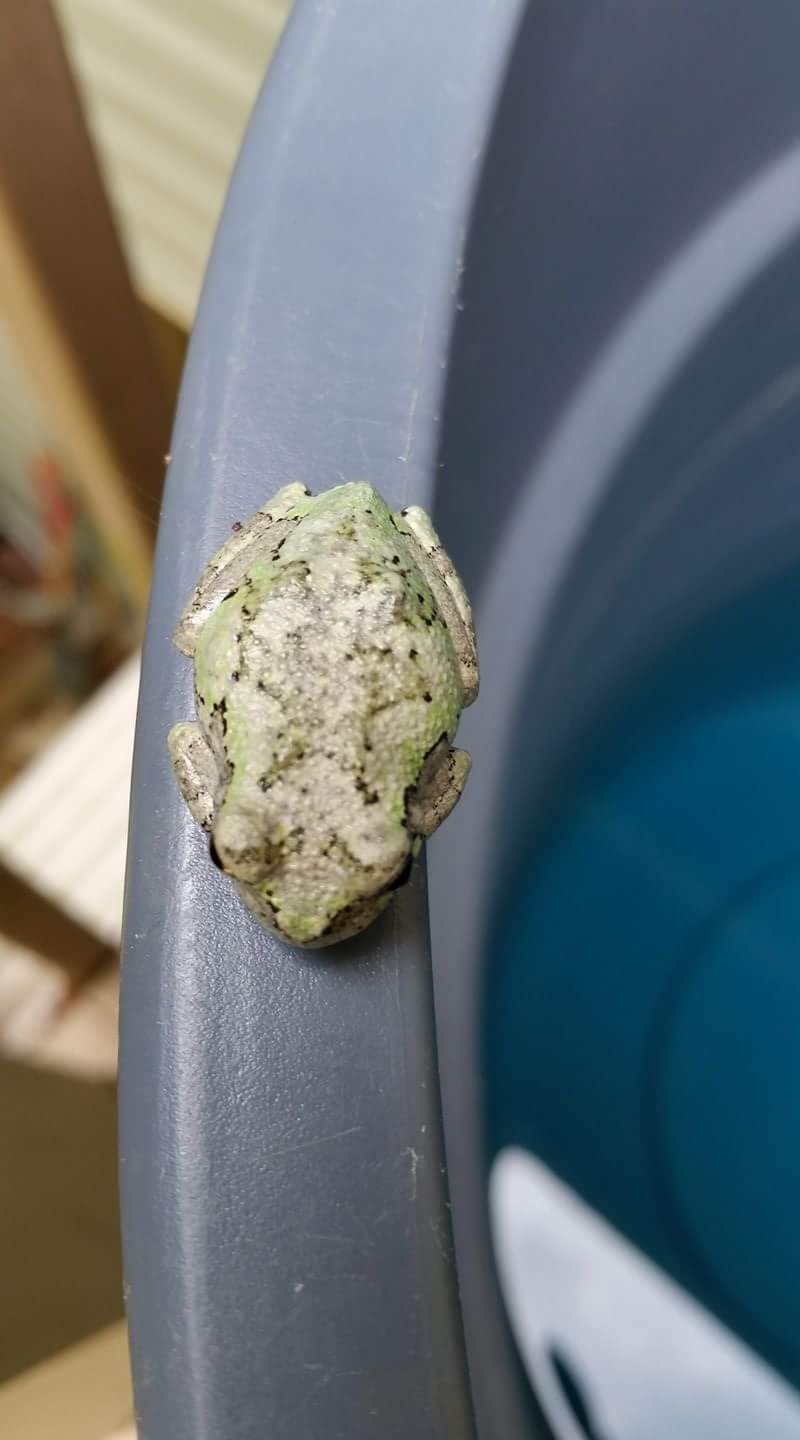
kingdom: Animalia
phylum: Chordata
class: Amphibia
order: Anura
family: Hylidae
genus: Dryophytes
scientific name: Dryophytes chrysoscelis
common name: Cope's gray treefrog
